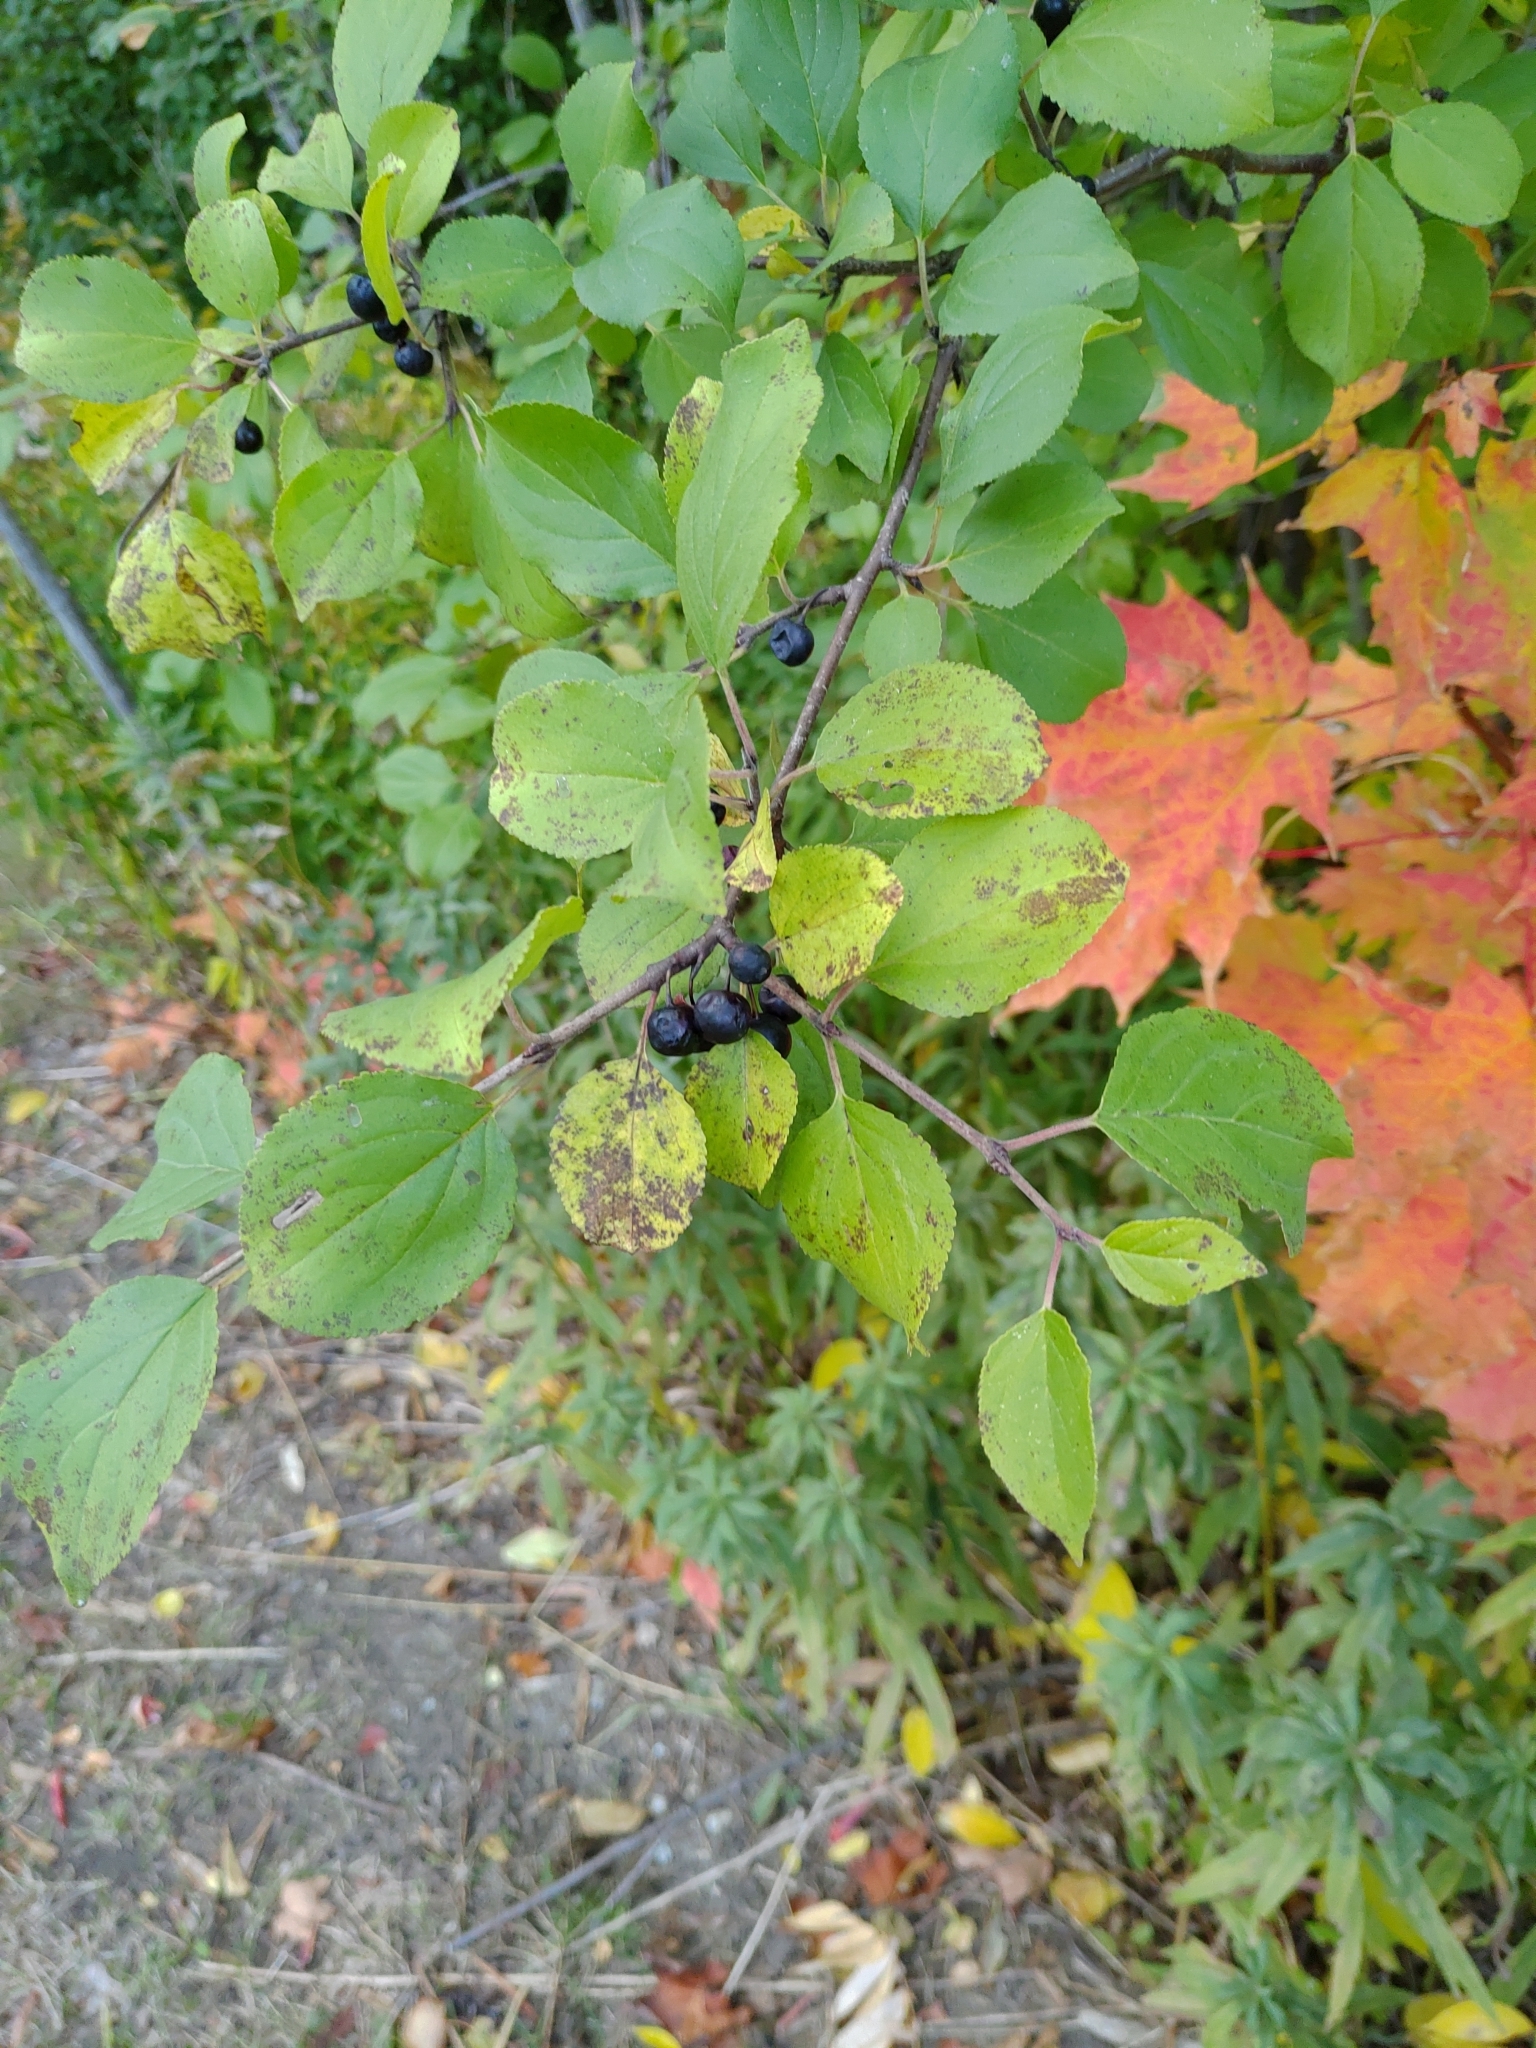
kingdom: Plantae
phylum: Tracheophyta
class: Magnoliopsida
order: Rosales
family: Rhamnaceae
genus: Rhamnus
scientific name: Rhamnus cathartica
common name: Common buckthorn
